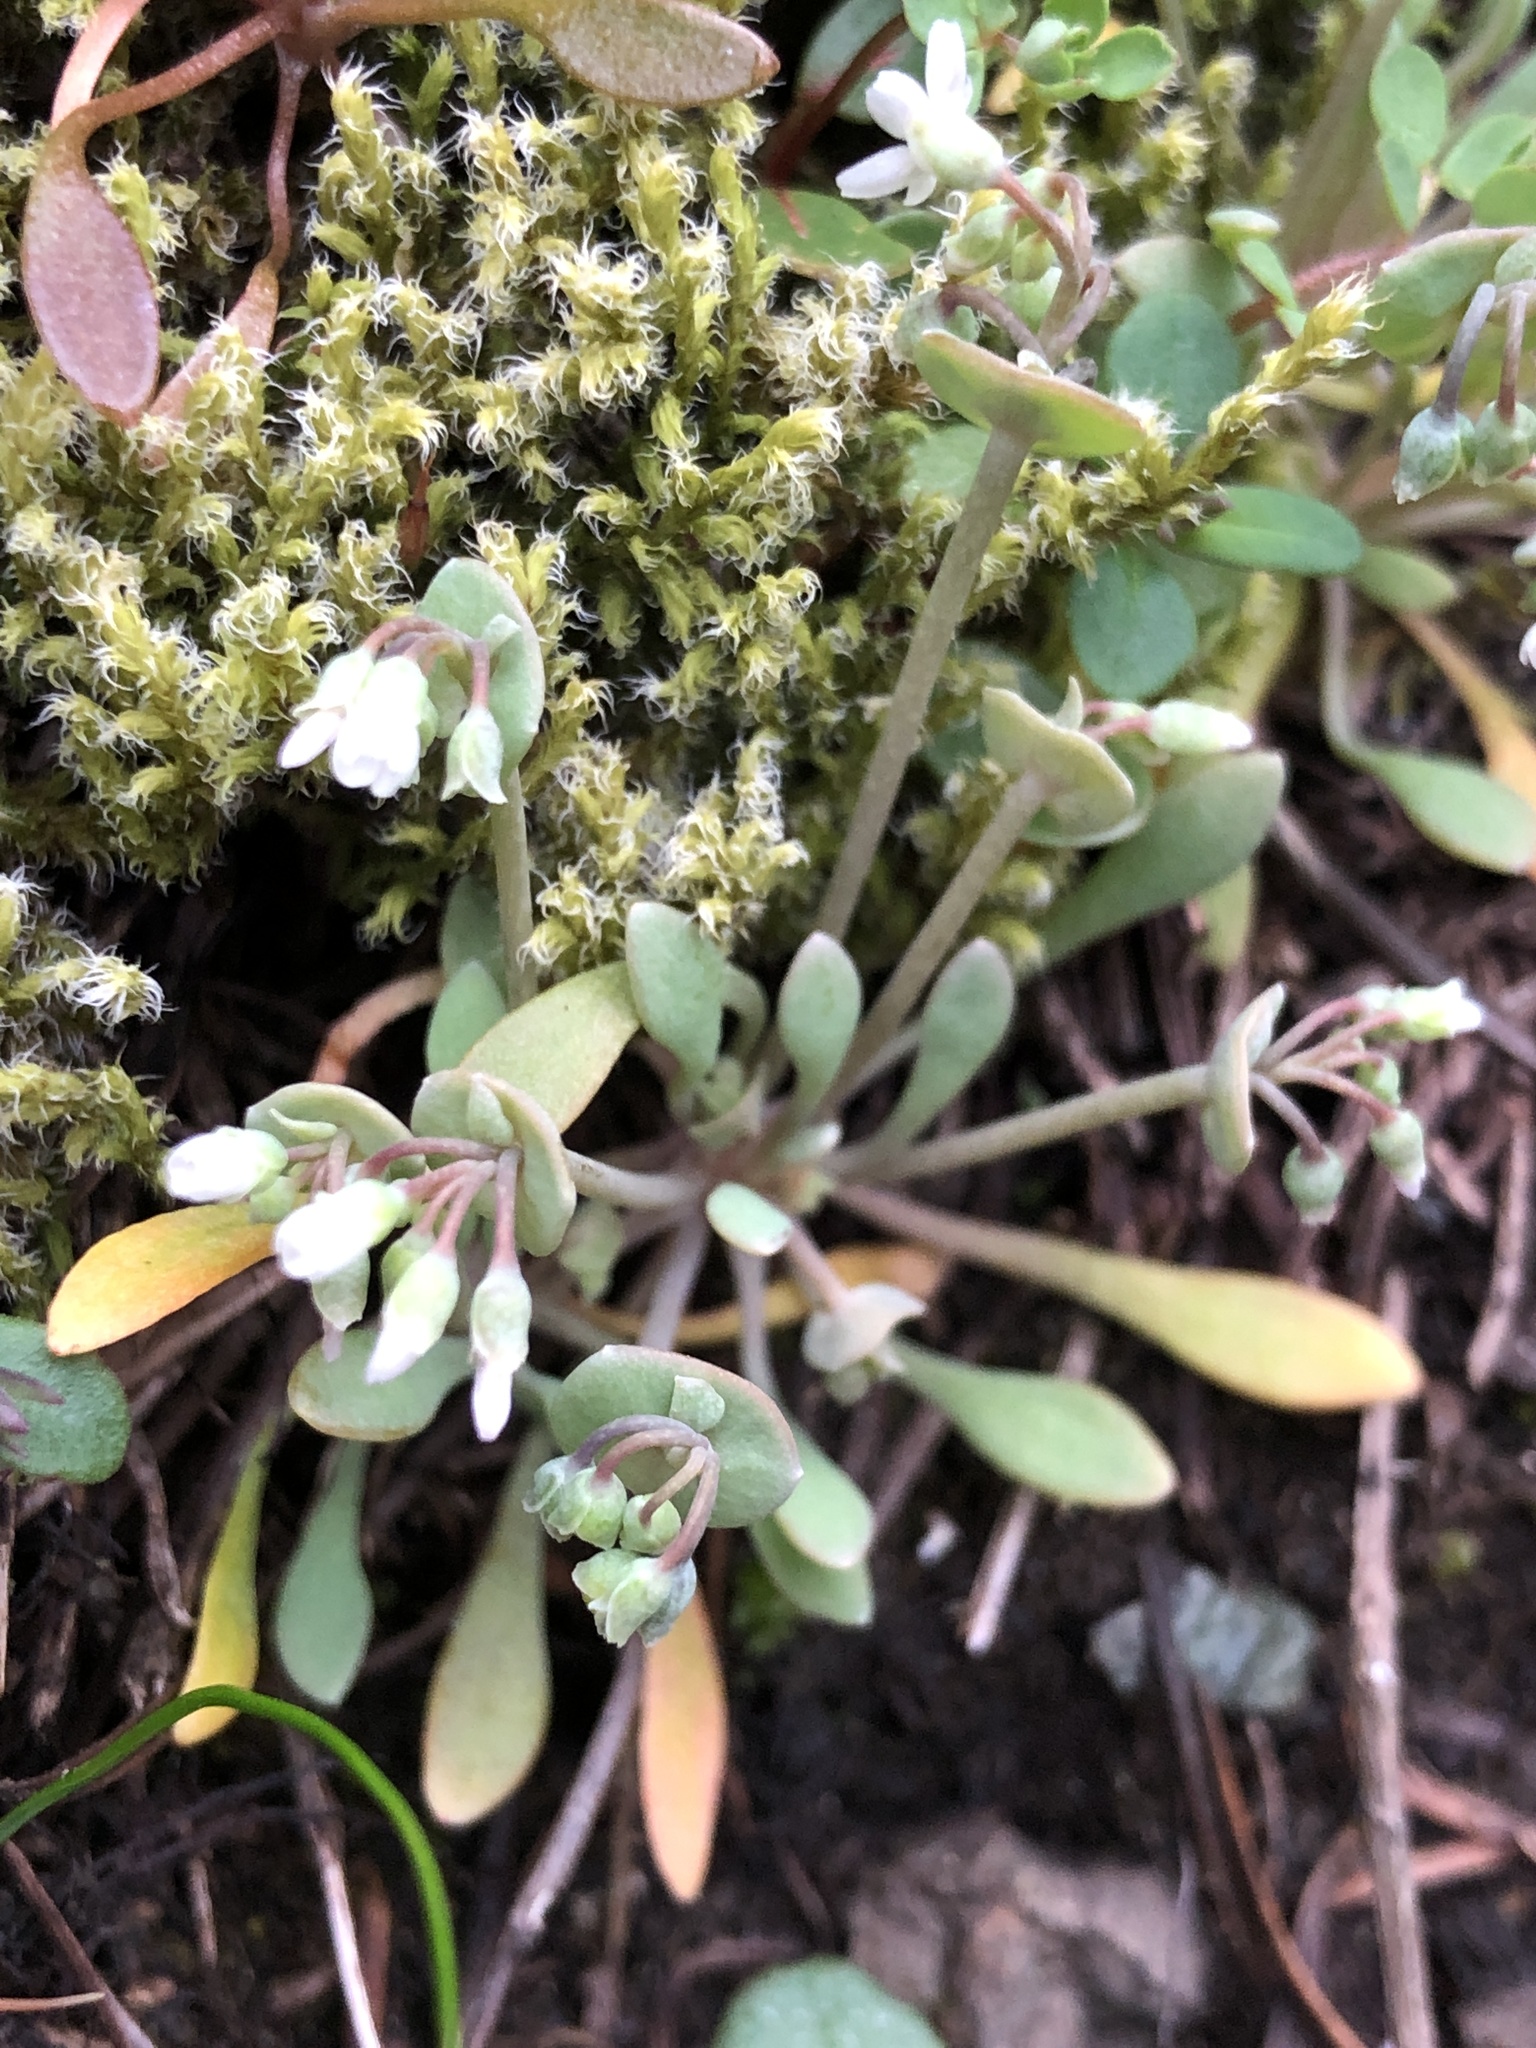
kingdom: Plantae
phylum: Tracheophyta
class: Magnoliopsida
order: Caryophyllales
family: Montiaceae
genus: Claytonia
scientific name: Claytonia exigua
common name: Pale spring beauty
